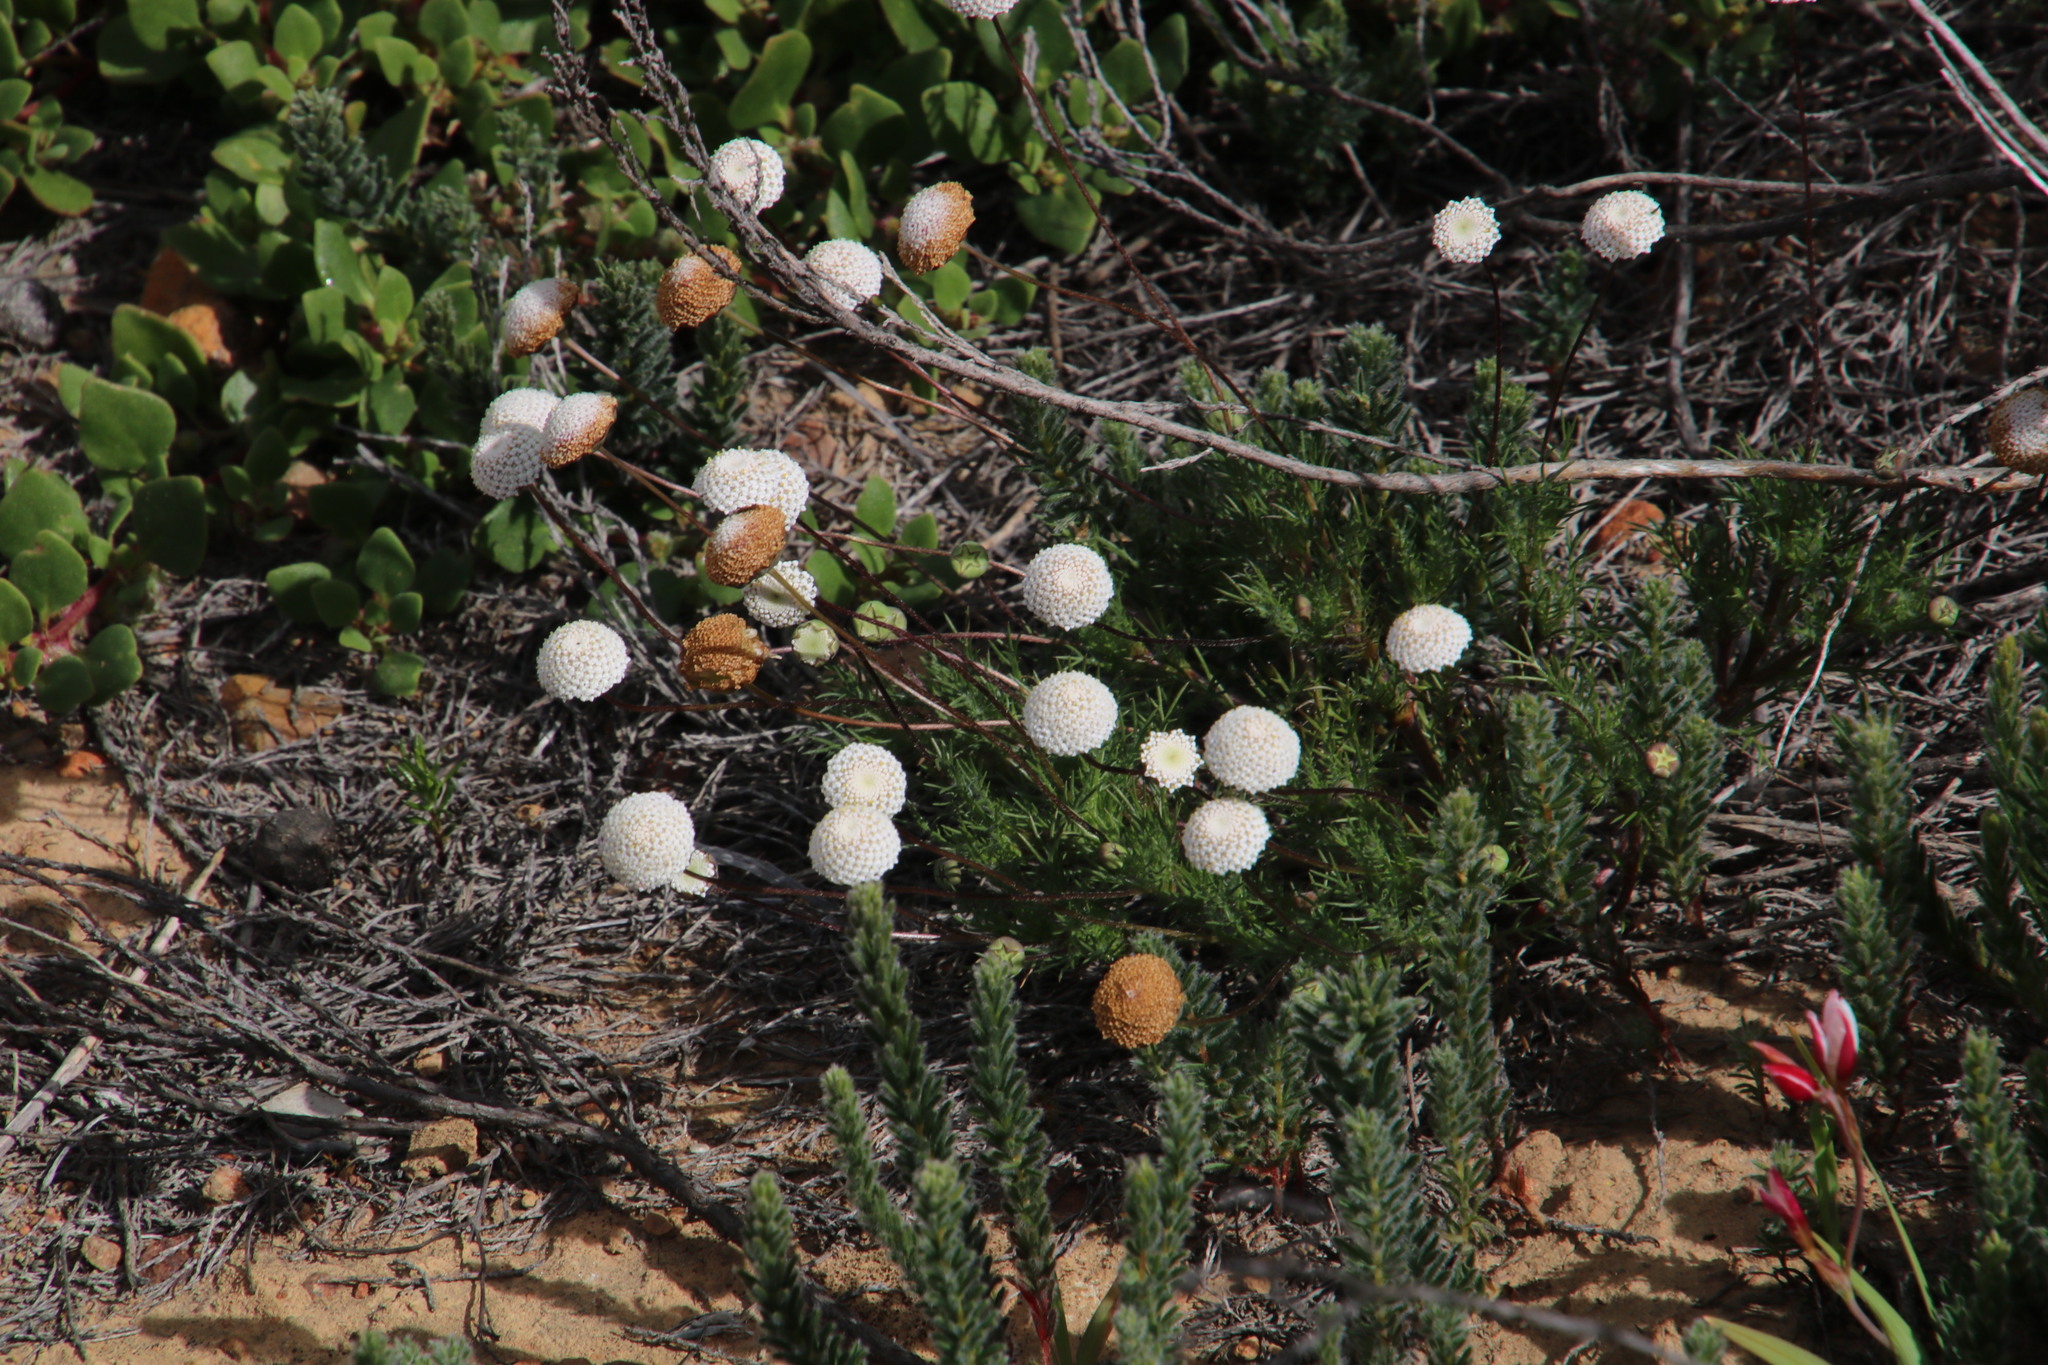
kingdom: Plantae
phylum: Tracheophyta
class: Magnoliopsida
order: Asterales
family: Asteraceae
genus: Cotula
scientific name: Cotula nudicaulis
